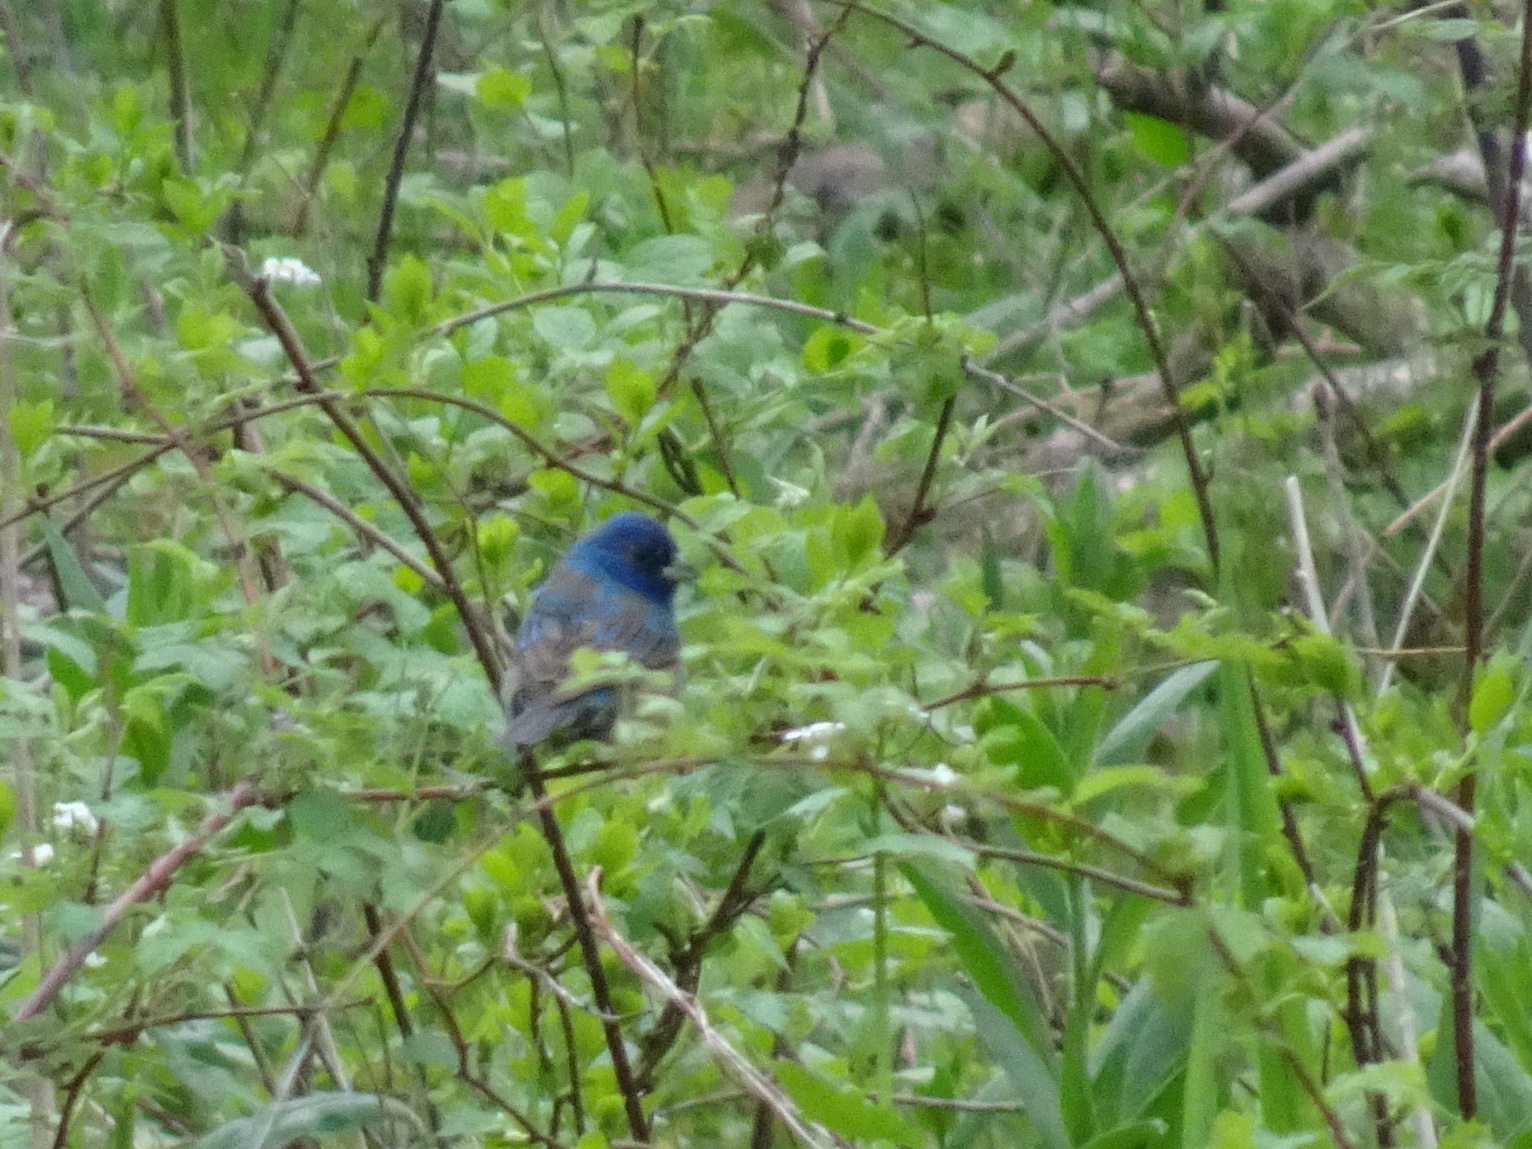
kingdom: Animalia
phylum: Chordata
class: Aves
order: Passeriformes
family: Cardinalidae
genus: Passerina
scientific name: Passerina cyanea
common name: Indigo bunting
